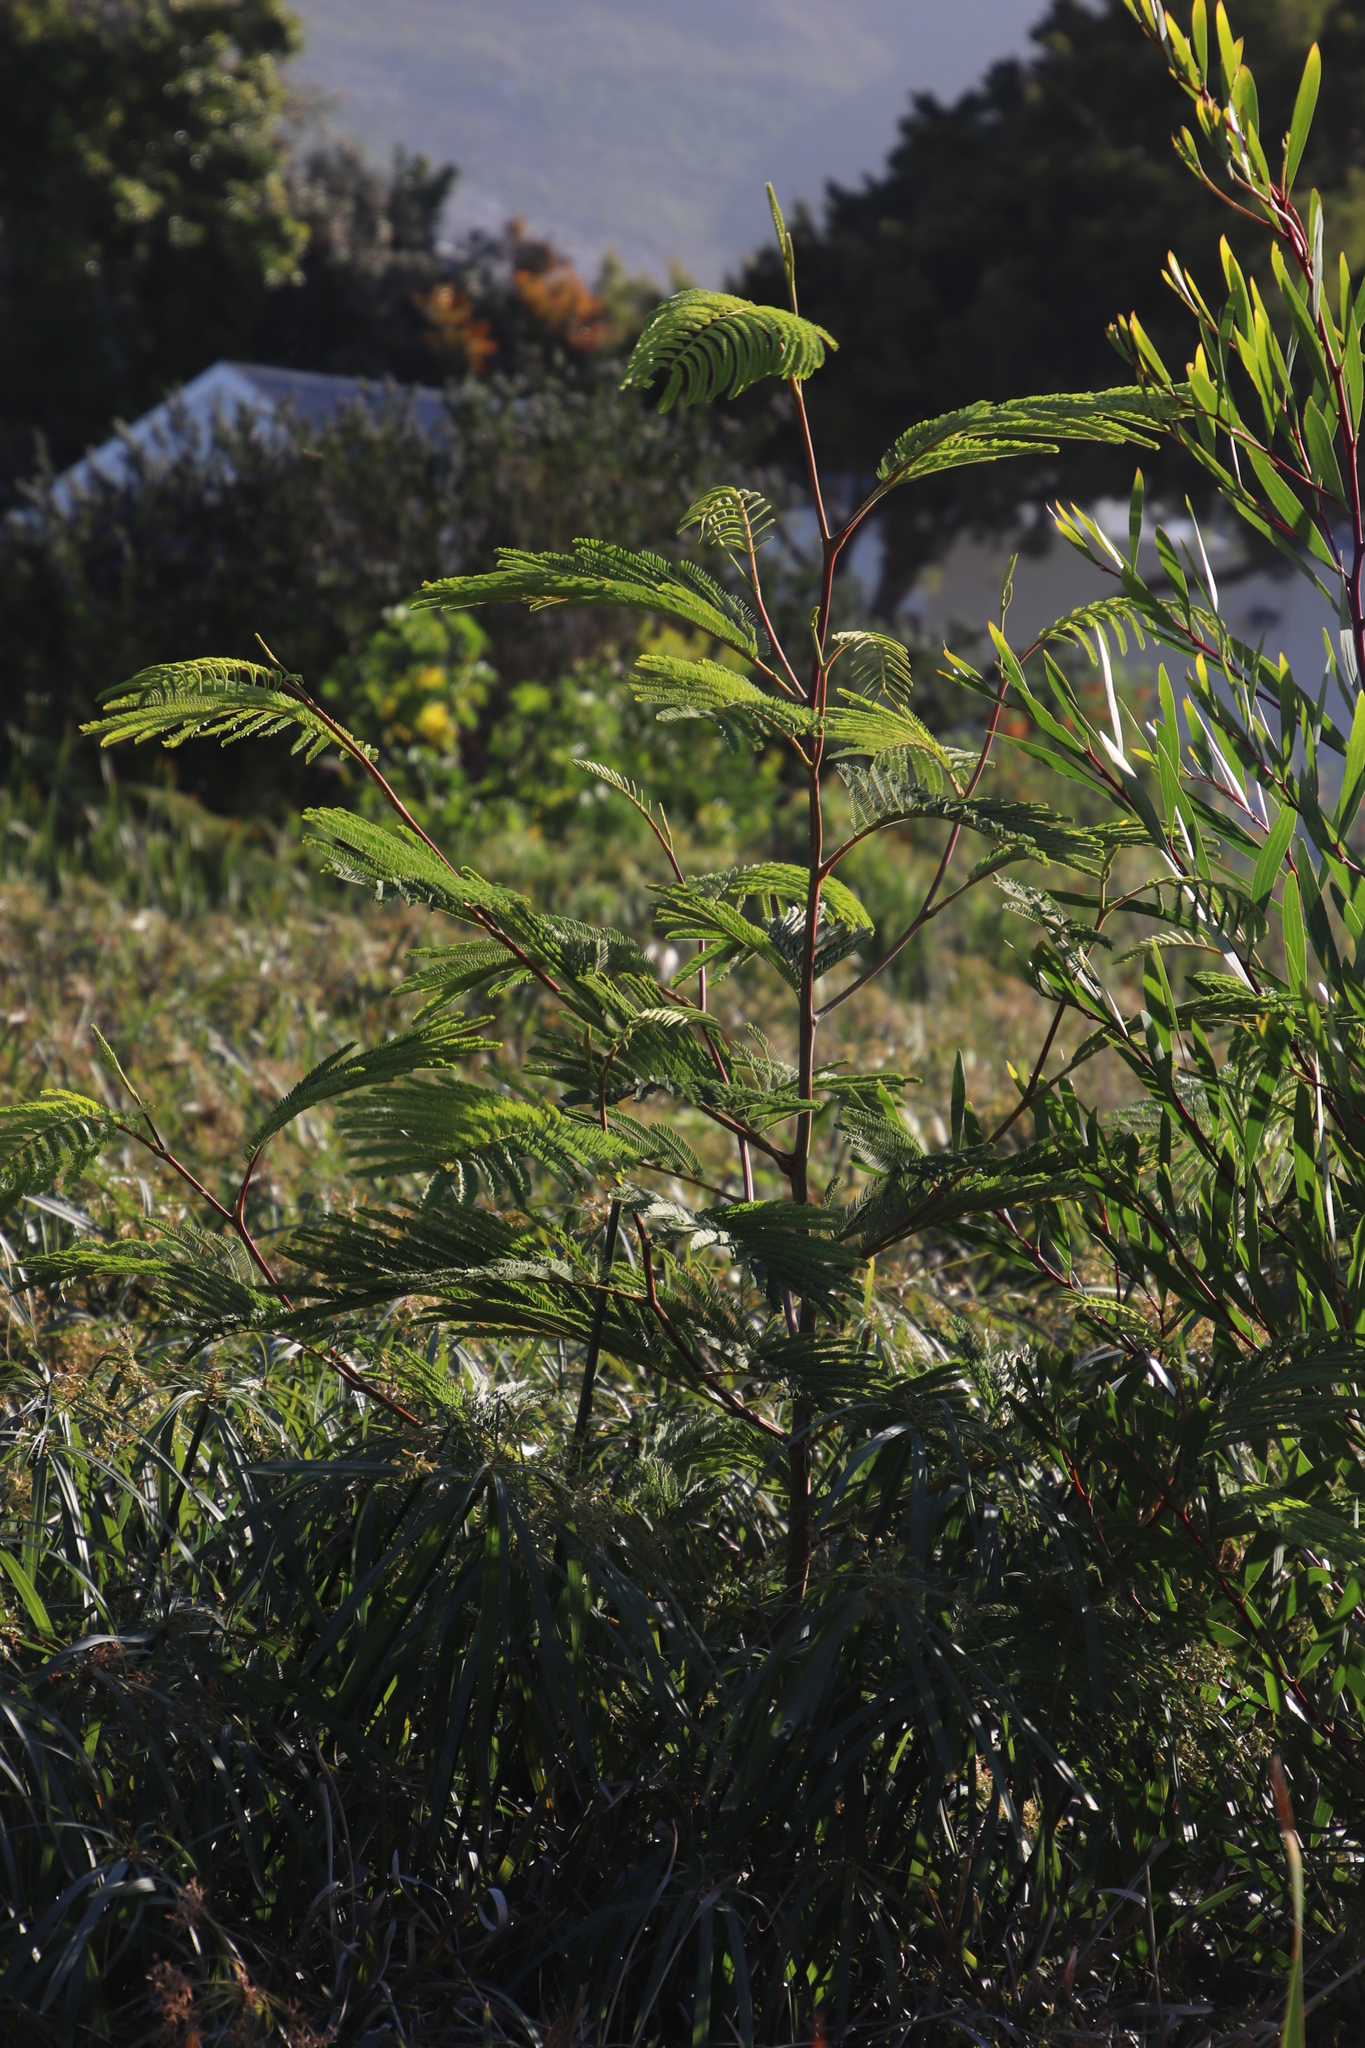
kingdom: Plantae
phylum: Tracheophyta
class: Magnoliopsida
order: Fabales
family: Fabaceae
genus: Paraserianthes
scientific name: Paraserianthes lophantha
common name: Plume albizia
